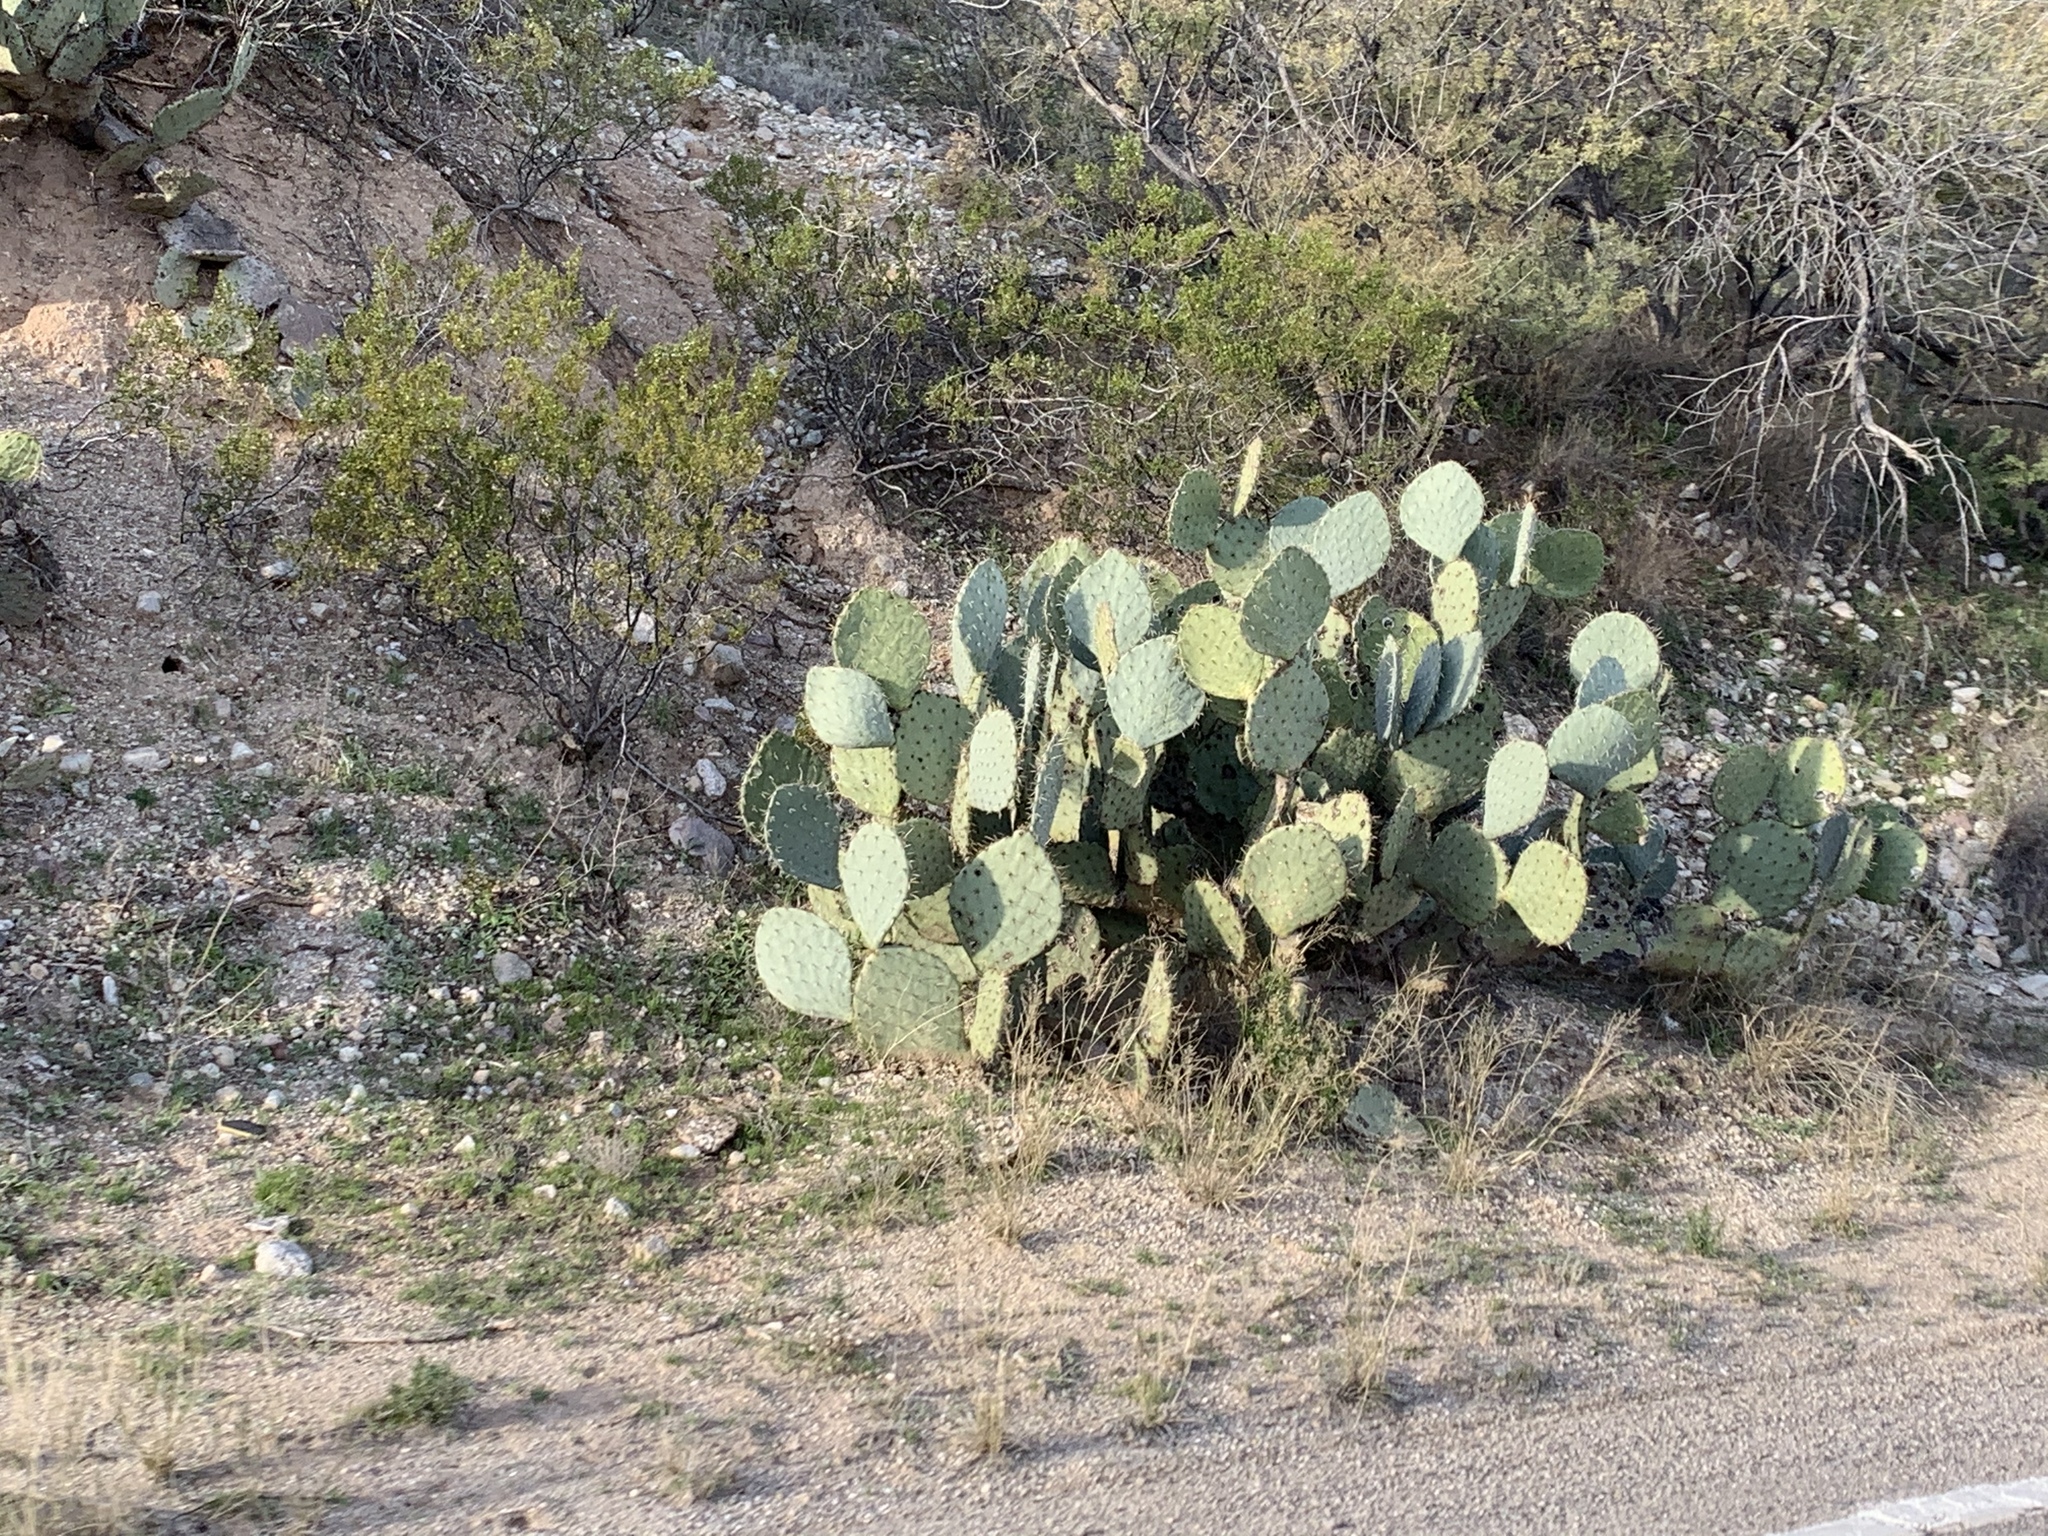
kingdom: Plantae
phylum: Tracheophyta
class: Magnoliopsida
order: Caryophyllales
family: Cactaceae
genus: Opuntia
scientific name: Opuntia engelmannii
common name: Cactus-apple
